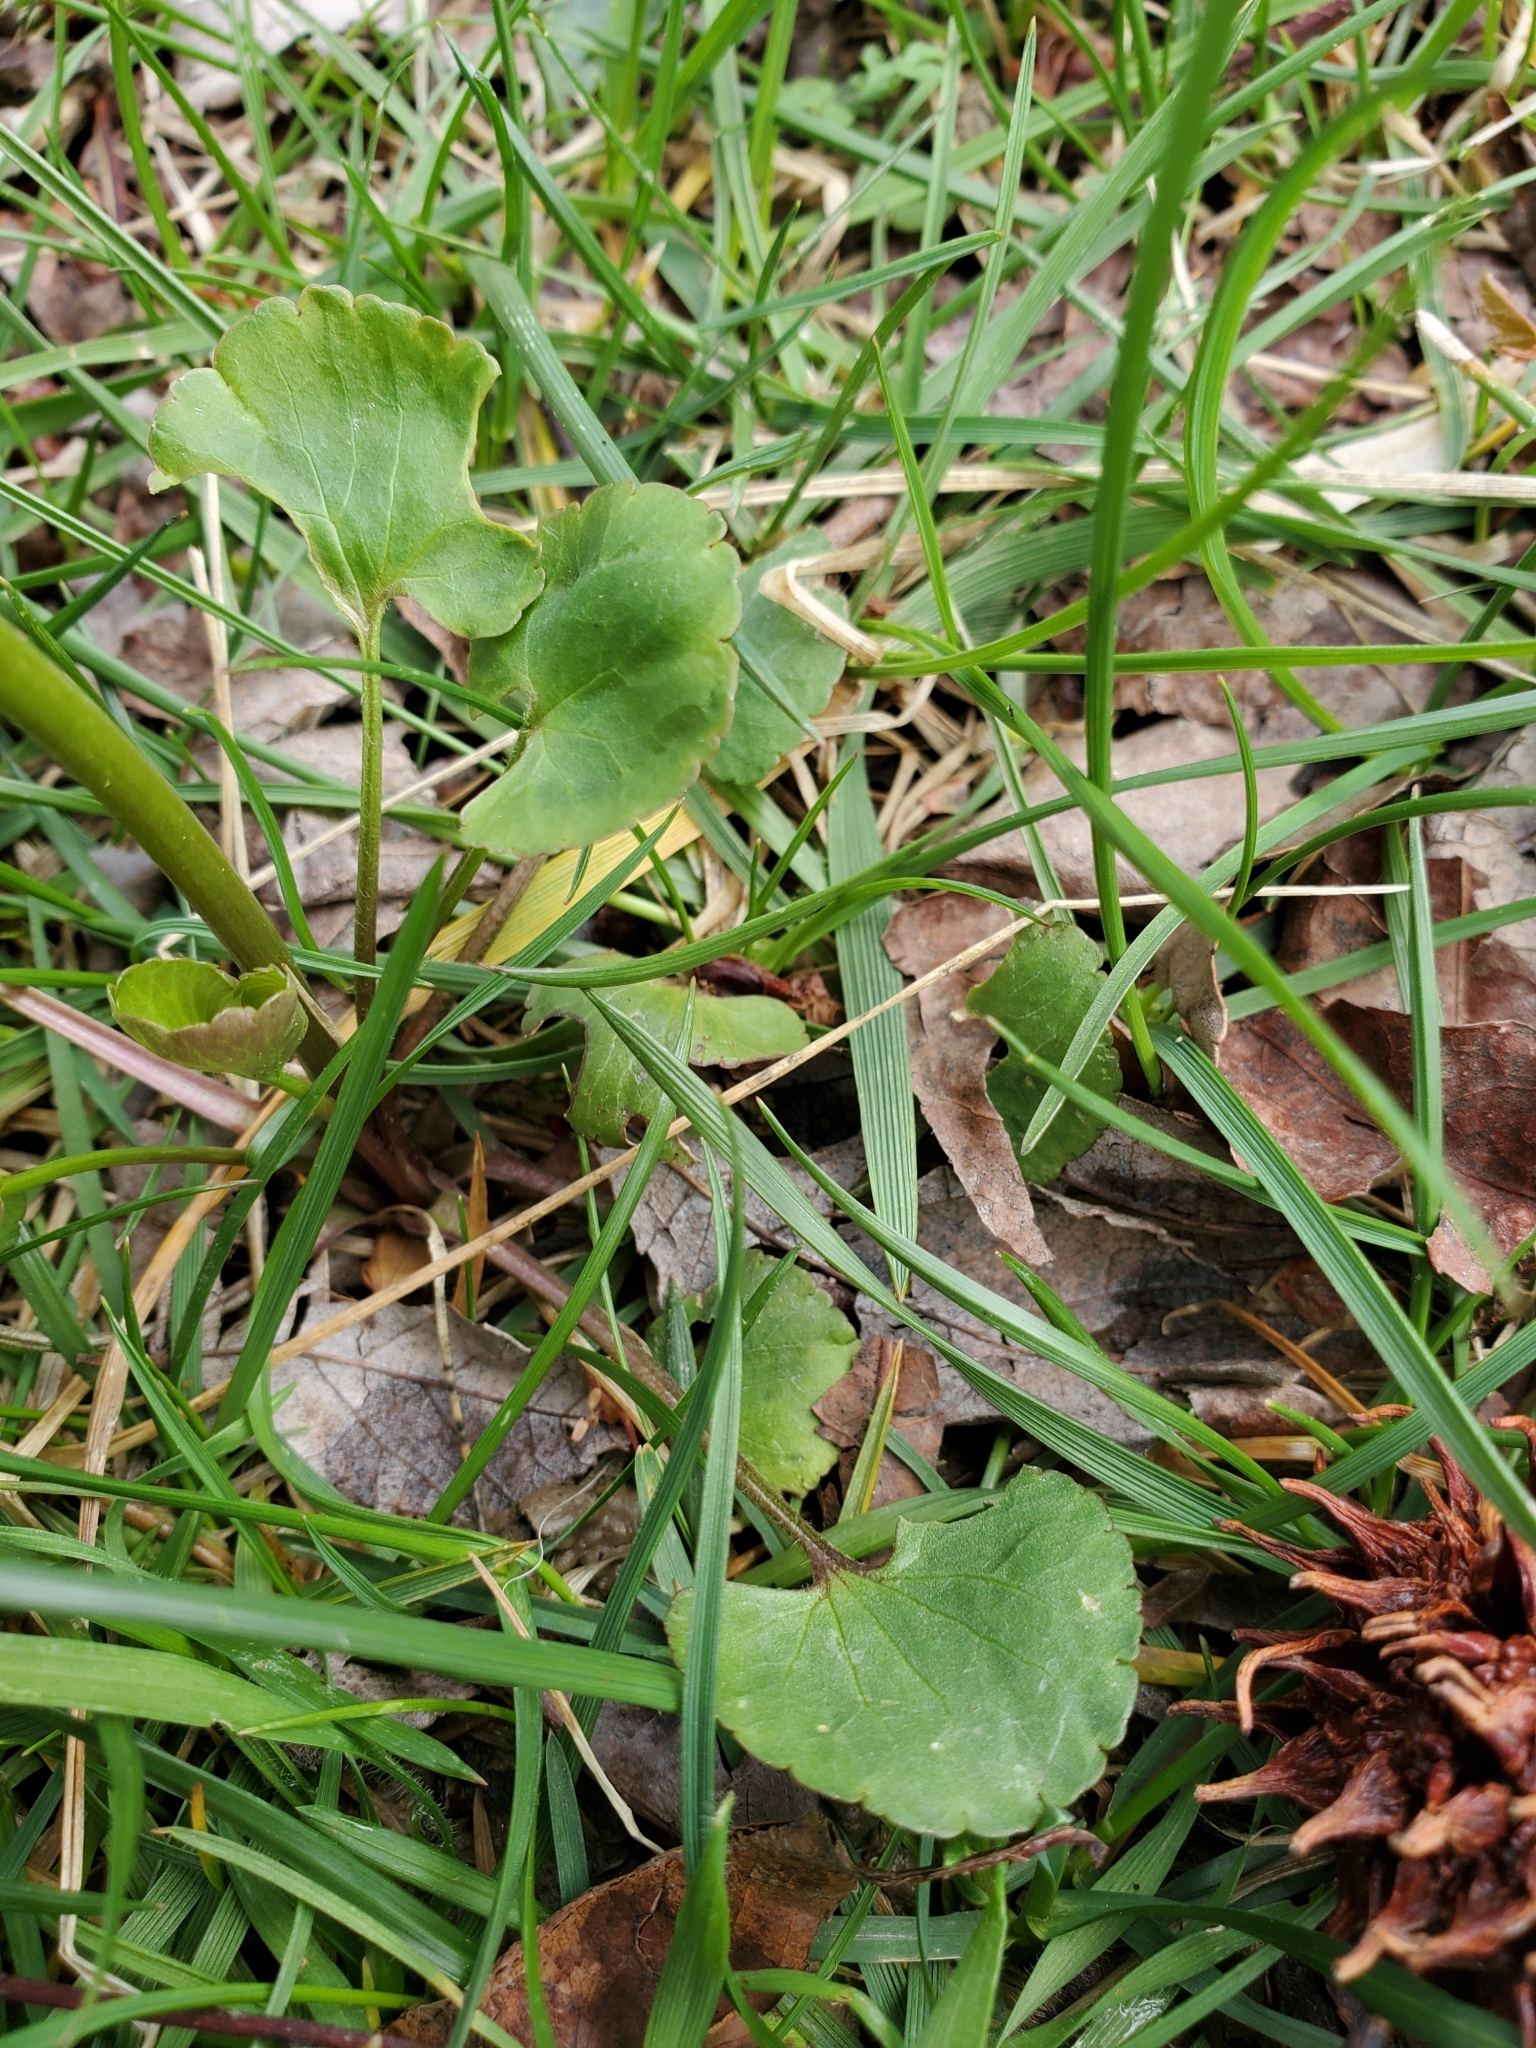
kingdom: Plantae
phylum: Tracheophyta
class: Magnoliopsida
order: Ranunculales
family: Ranunculaceae
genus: Ranunculus
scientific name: Ranunculus abortivus
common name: Early wood buttercup
